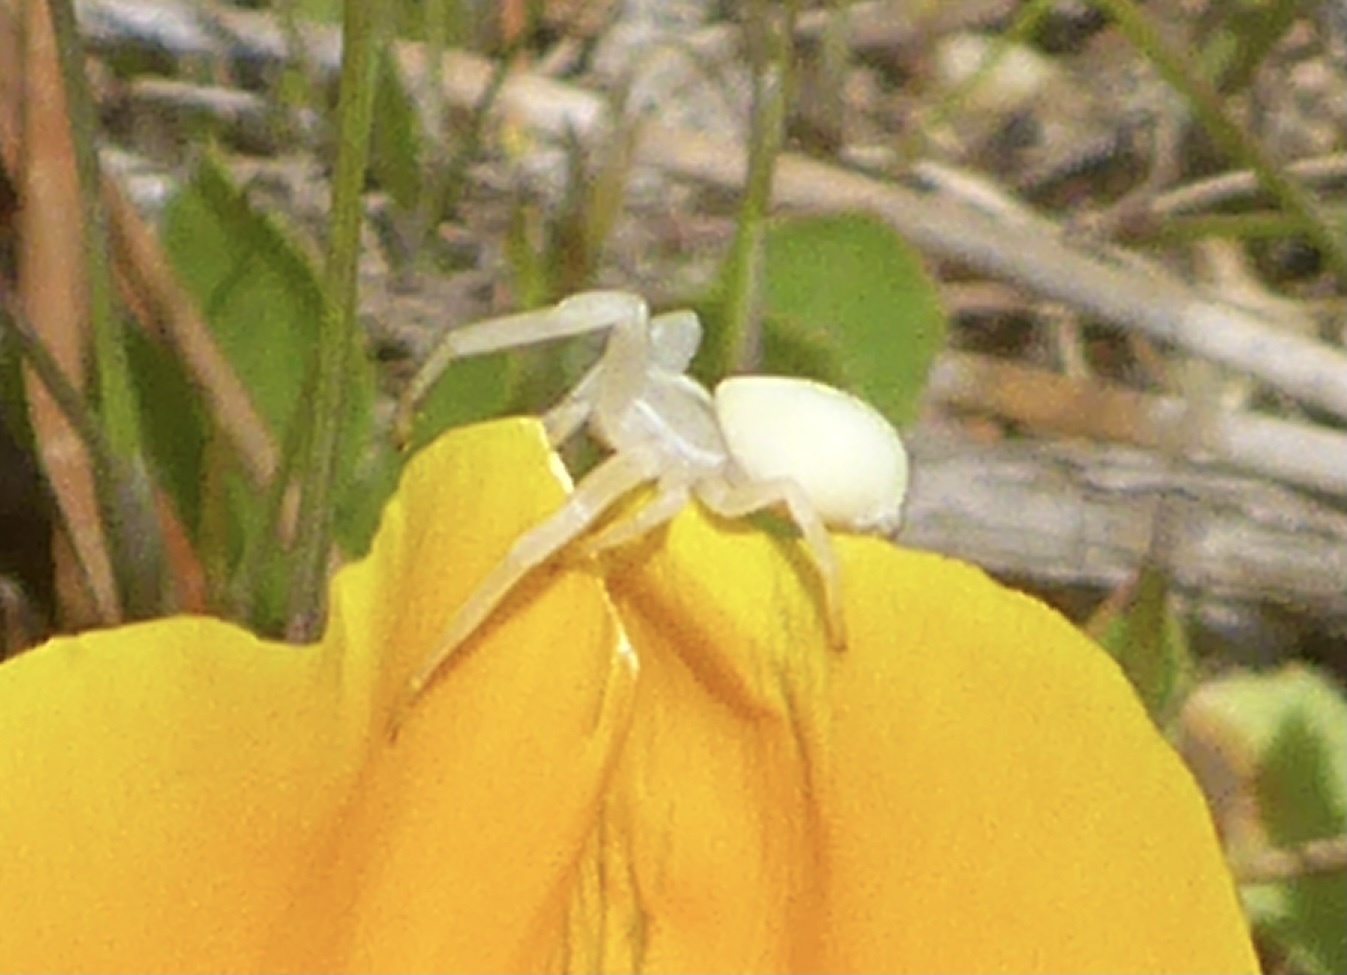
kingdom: Animalia
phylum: Arthropoda
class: Arachnida
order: Araneae
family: Thomisidae
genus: Misumena
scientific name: Misumena vatia
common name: Goldenrod crab spider
